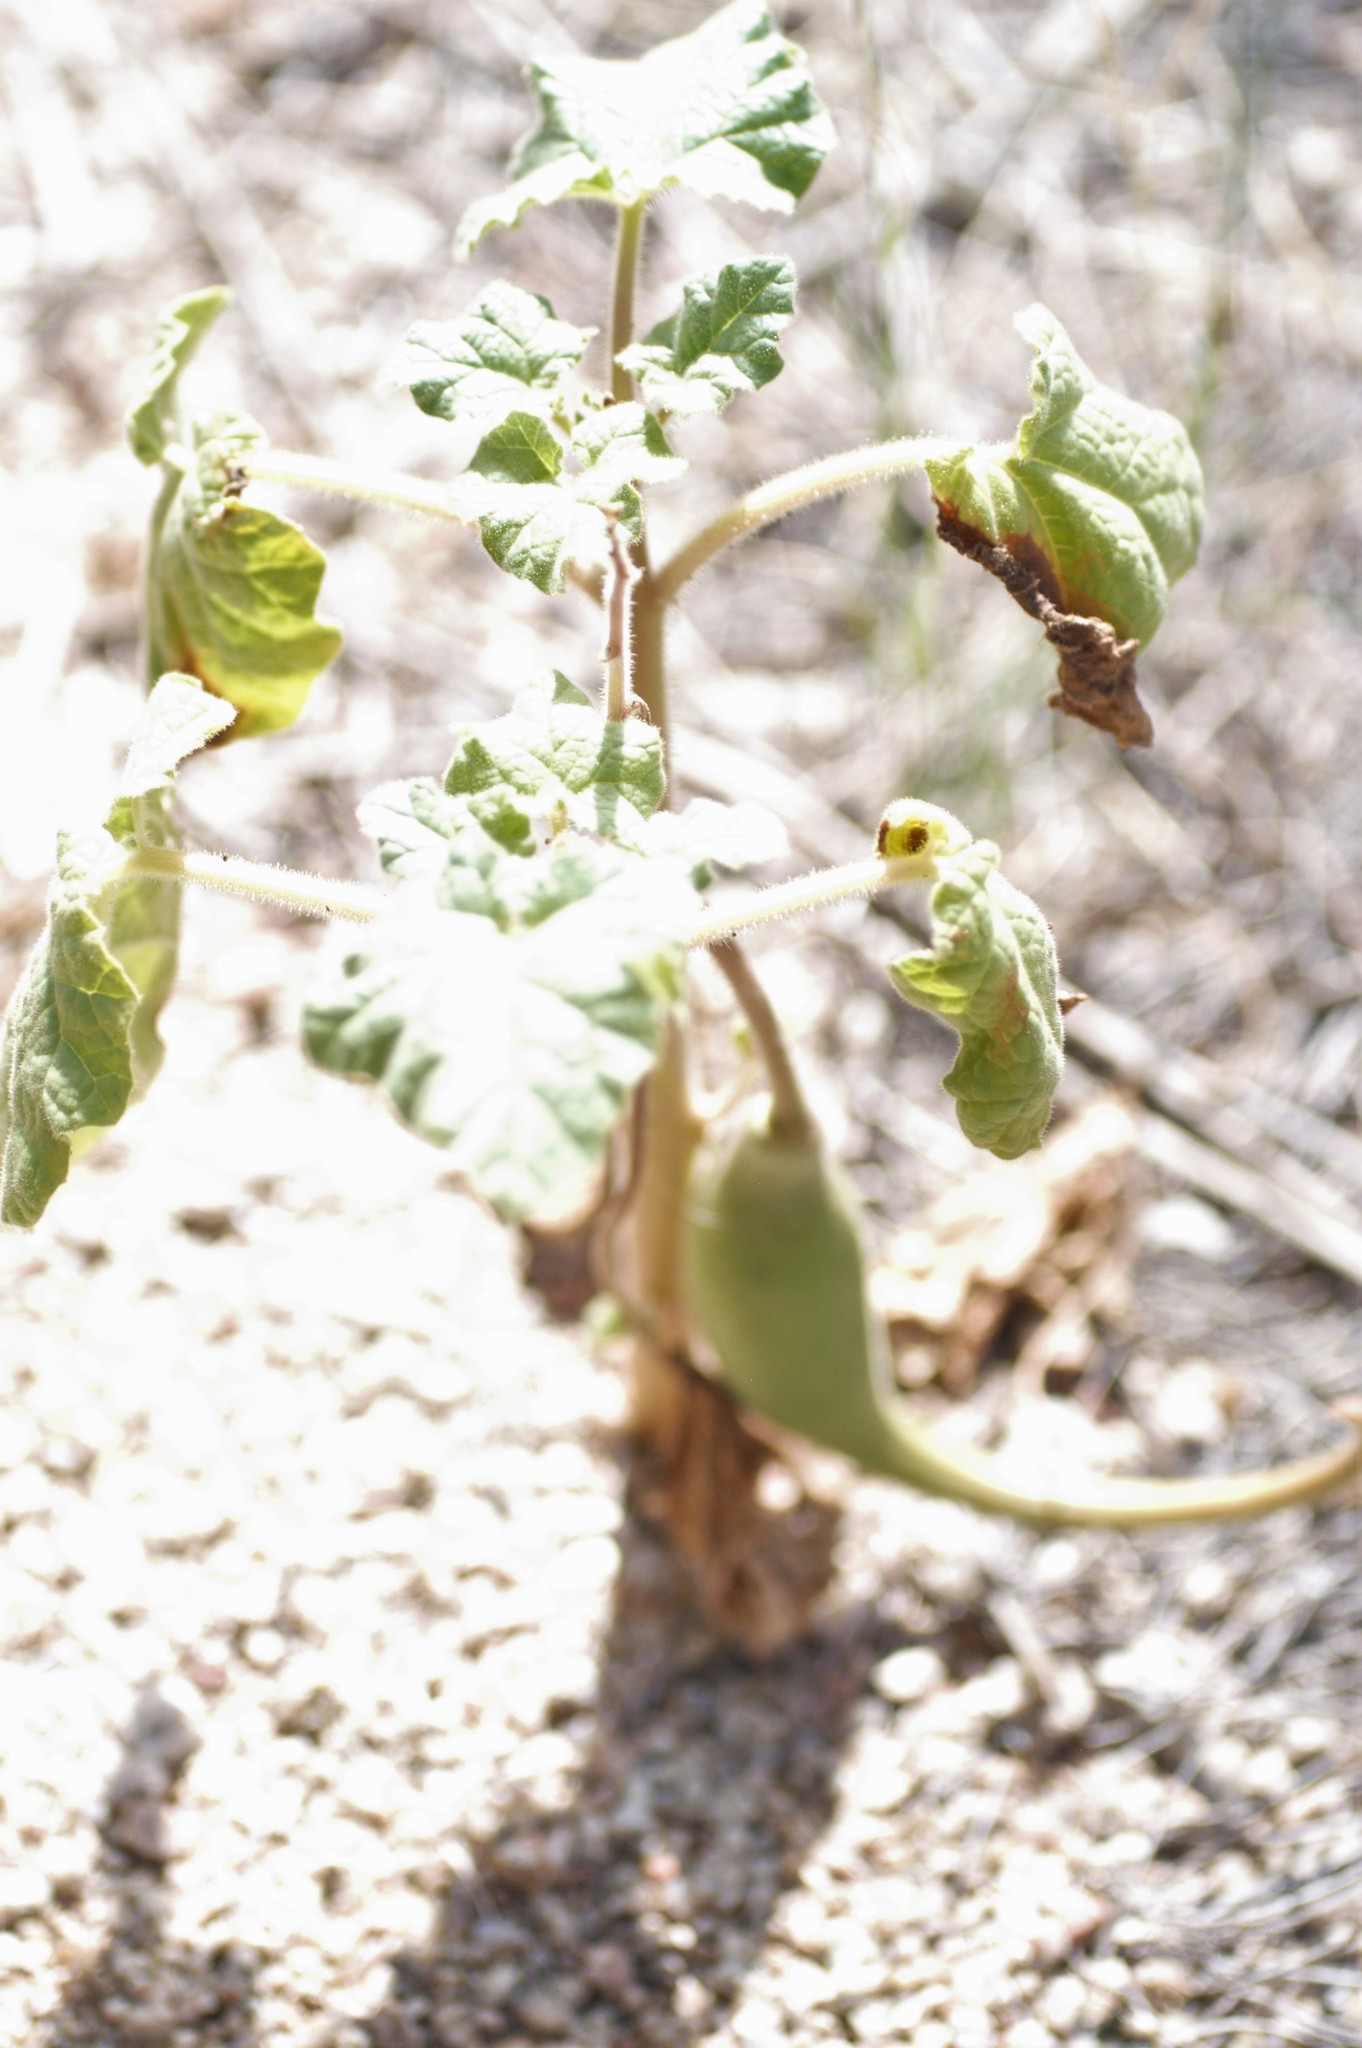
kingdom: Plantae
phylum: Tracheophyta
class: Magnoliopsida
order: Lamiales
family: Martyniaceae
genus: Proboscidea
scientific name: Proboscidea louisianica
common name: Elephant tusks
